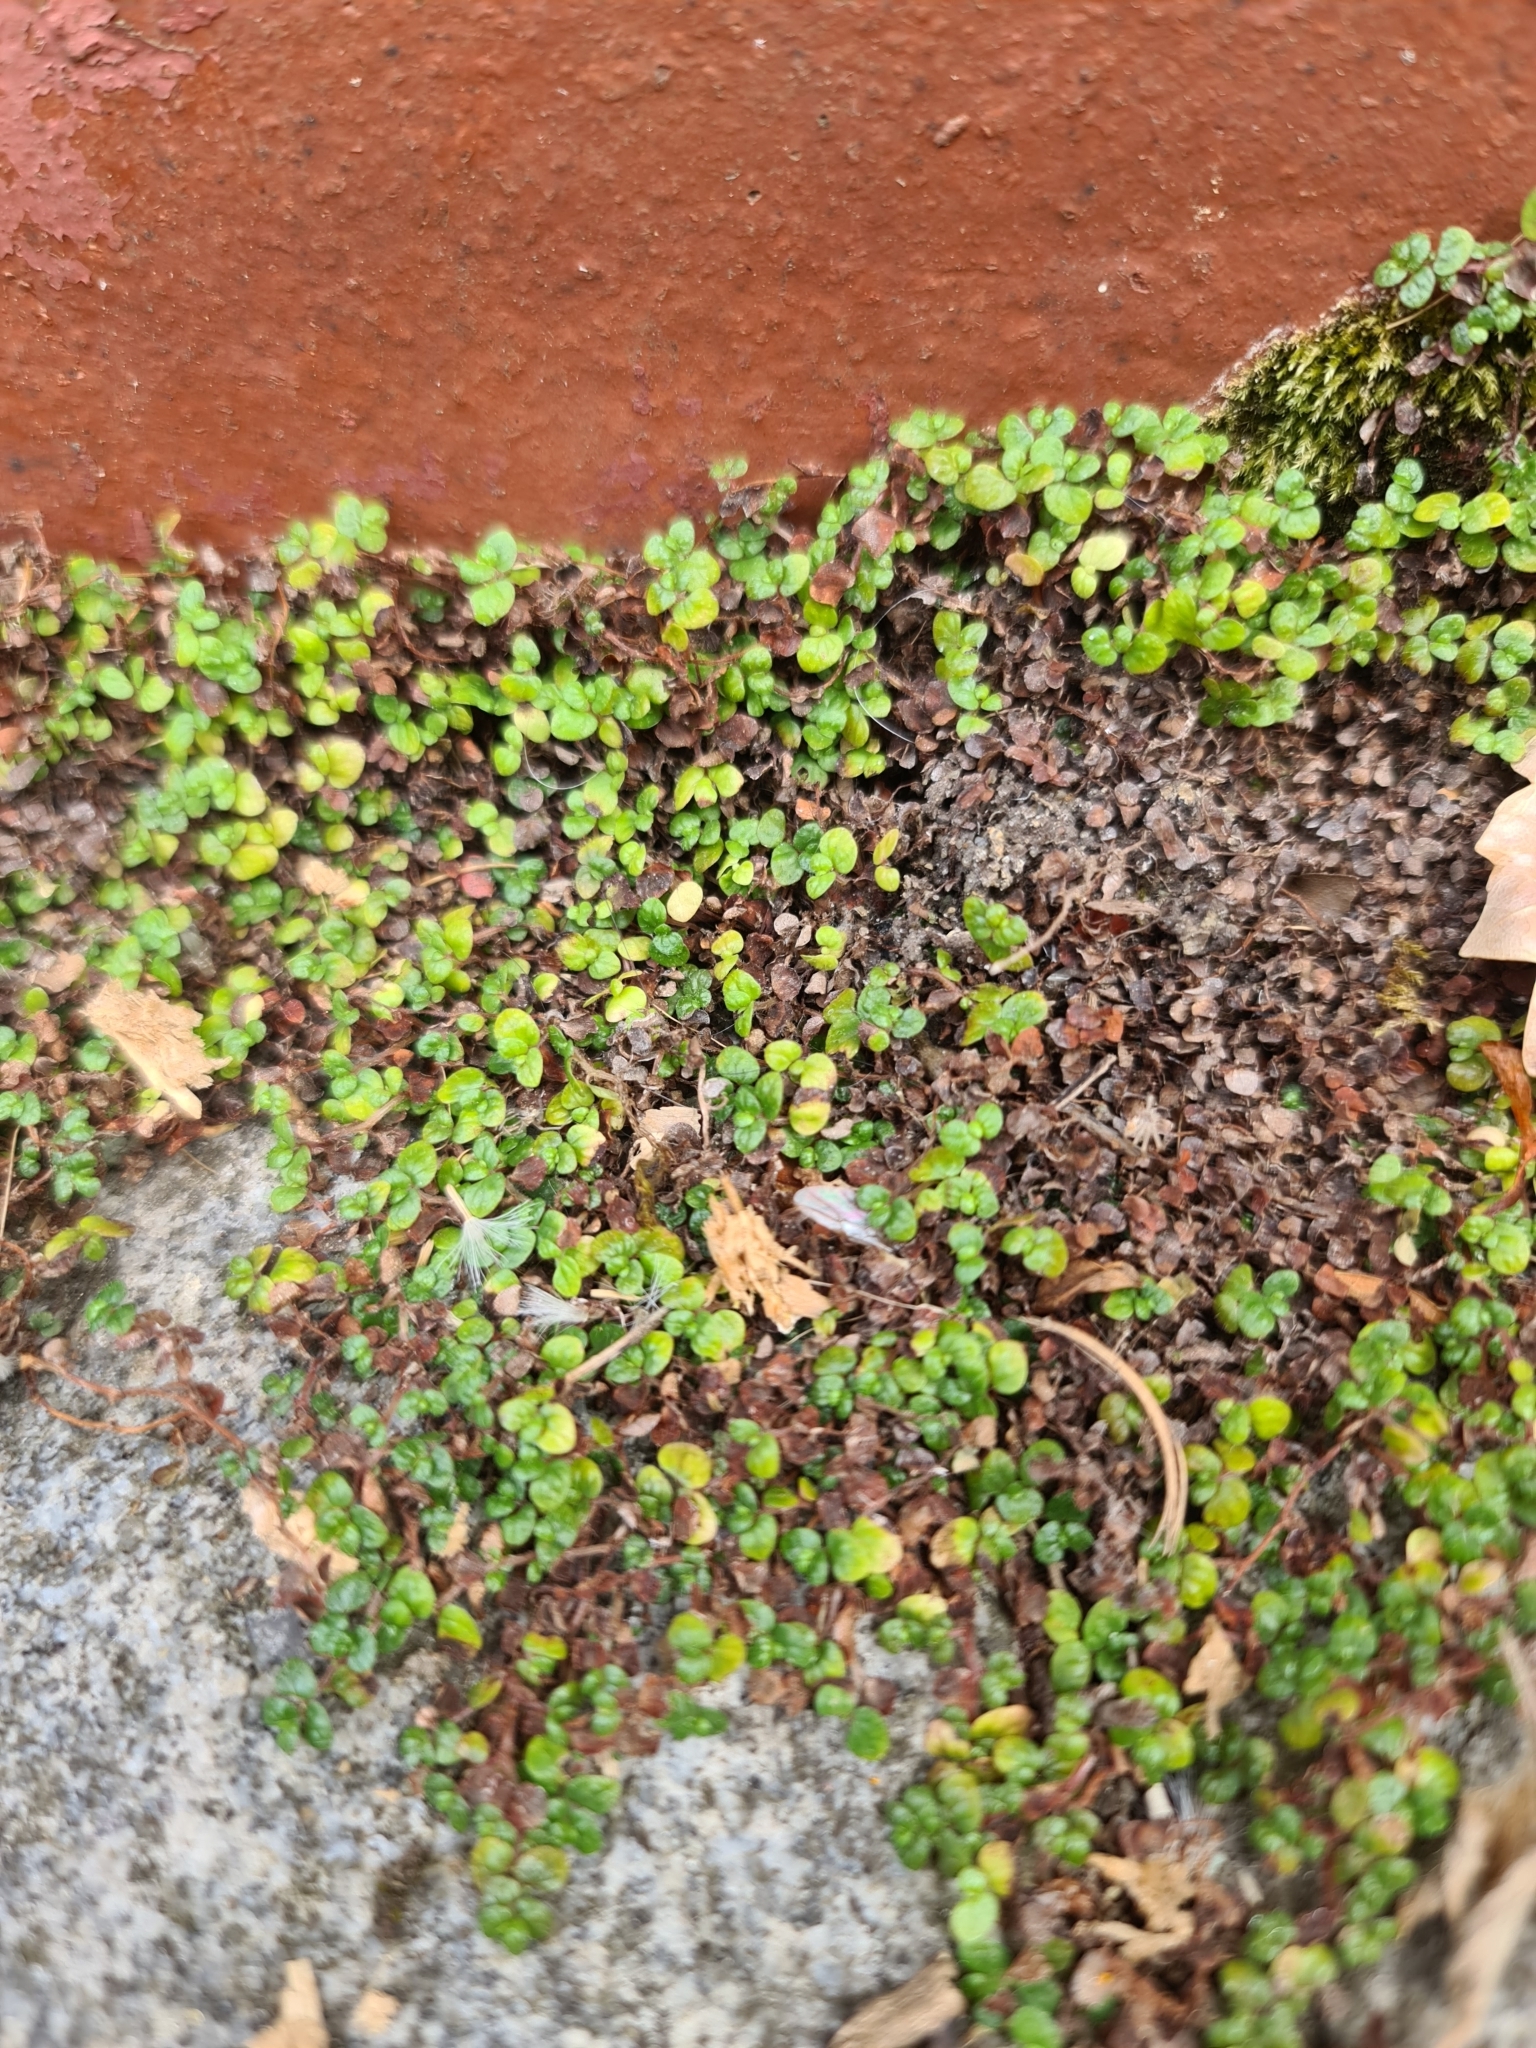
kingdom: Plantae
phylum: Tracheophyta
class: Magnoliopsida
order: Rosales
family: Urticaceae
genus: Soleirolia
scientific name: Soleirolia soleirolii
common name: Mind-your-own-business
